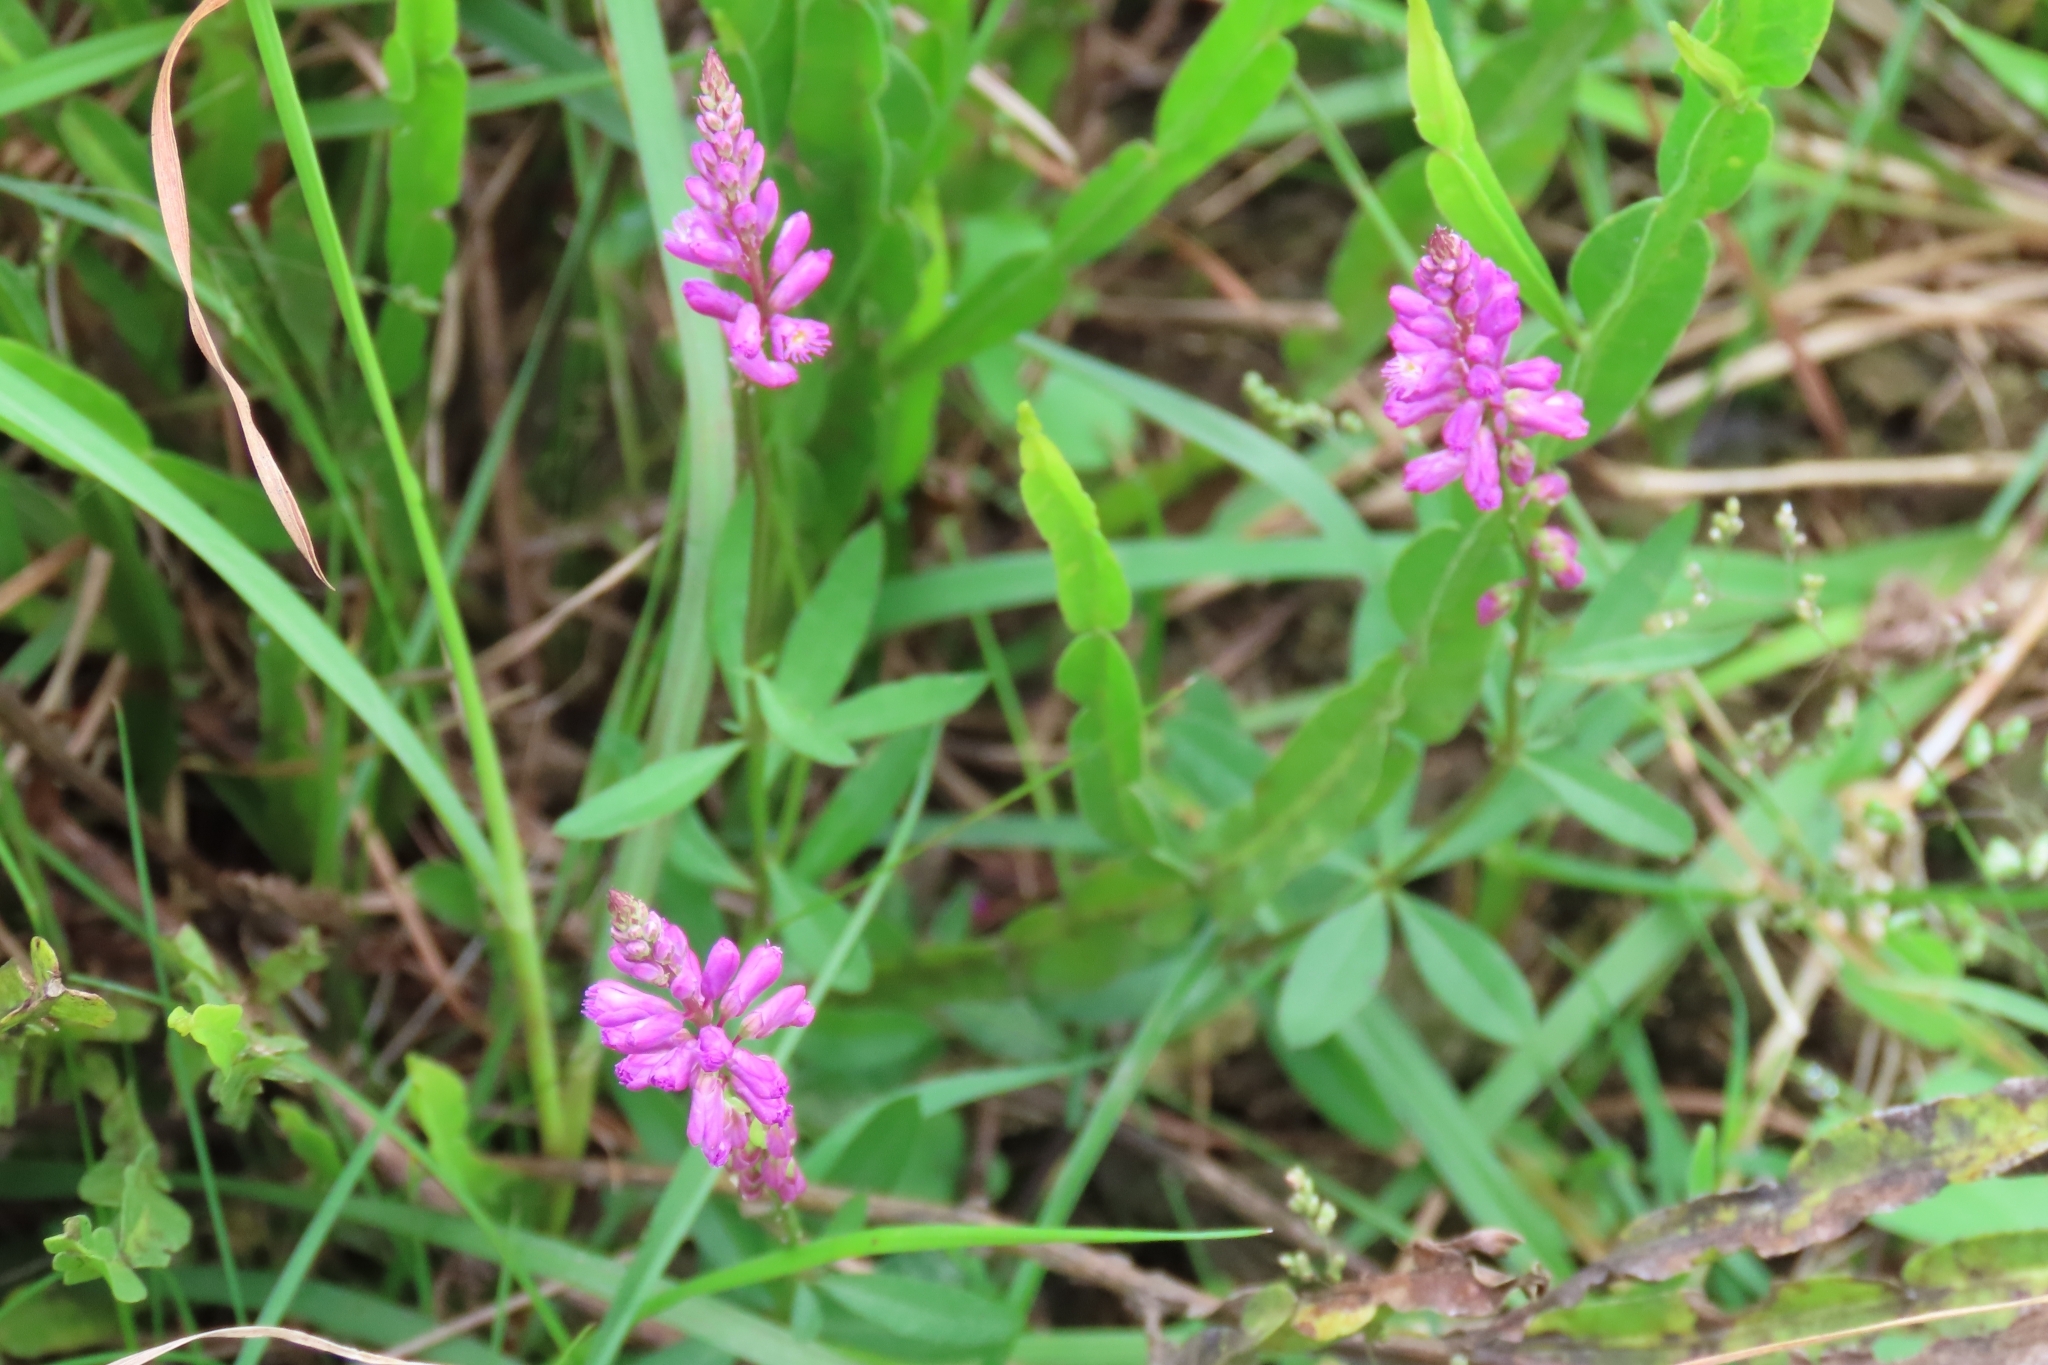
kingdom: Plantae
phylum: Tracheophyta
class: Magnoliopsida
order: Fabales
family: Polygalaceae
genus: Polygala
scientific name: Polygala molluginifolia
